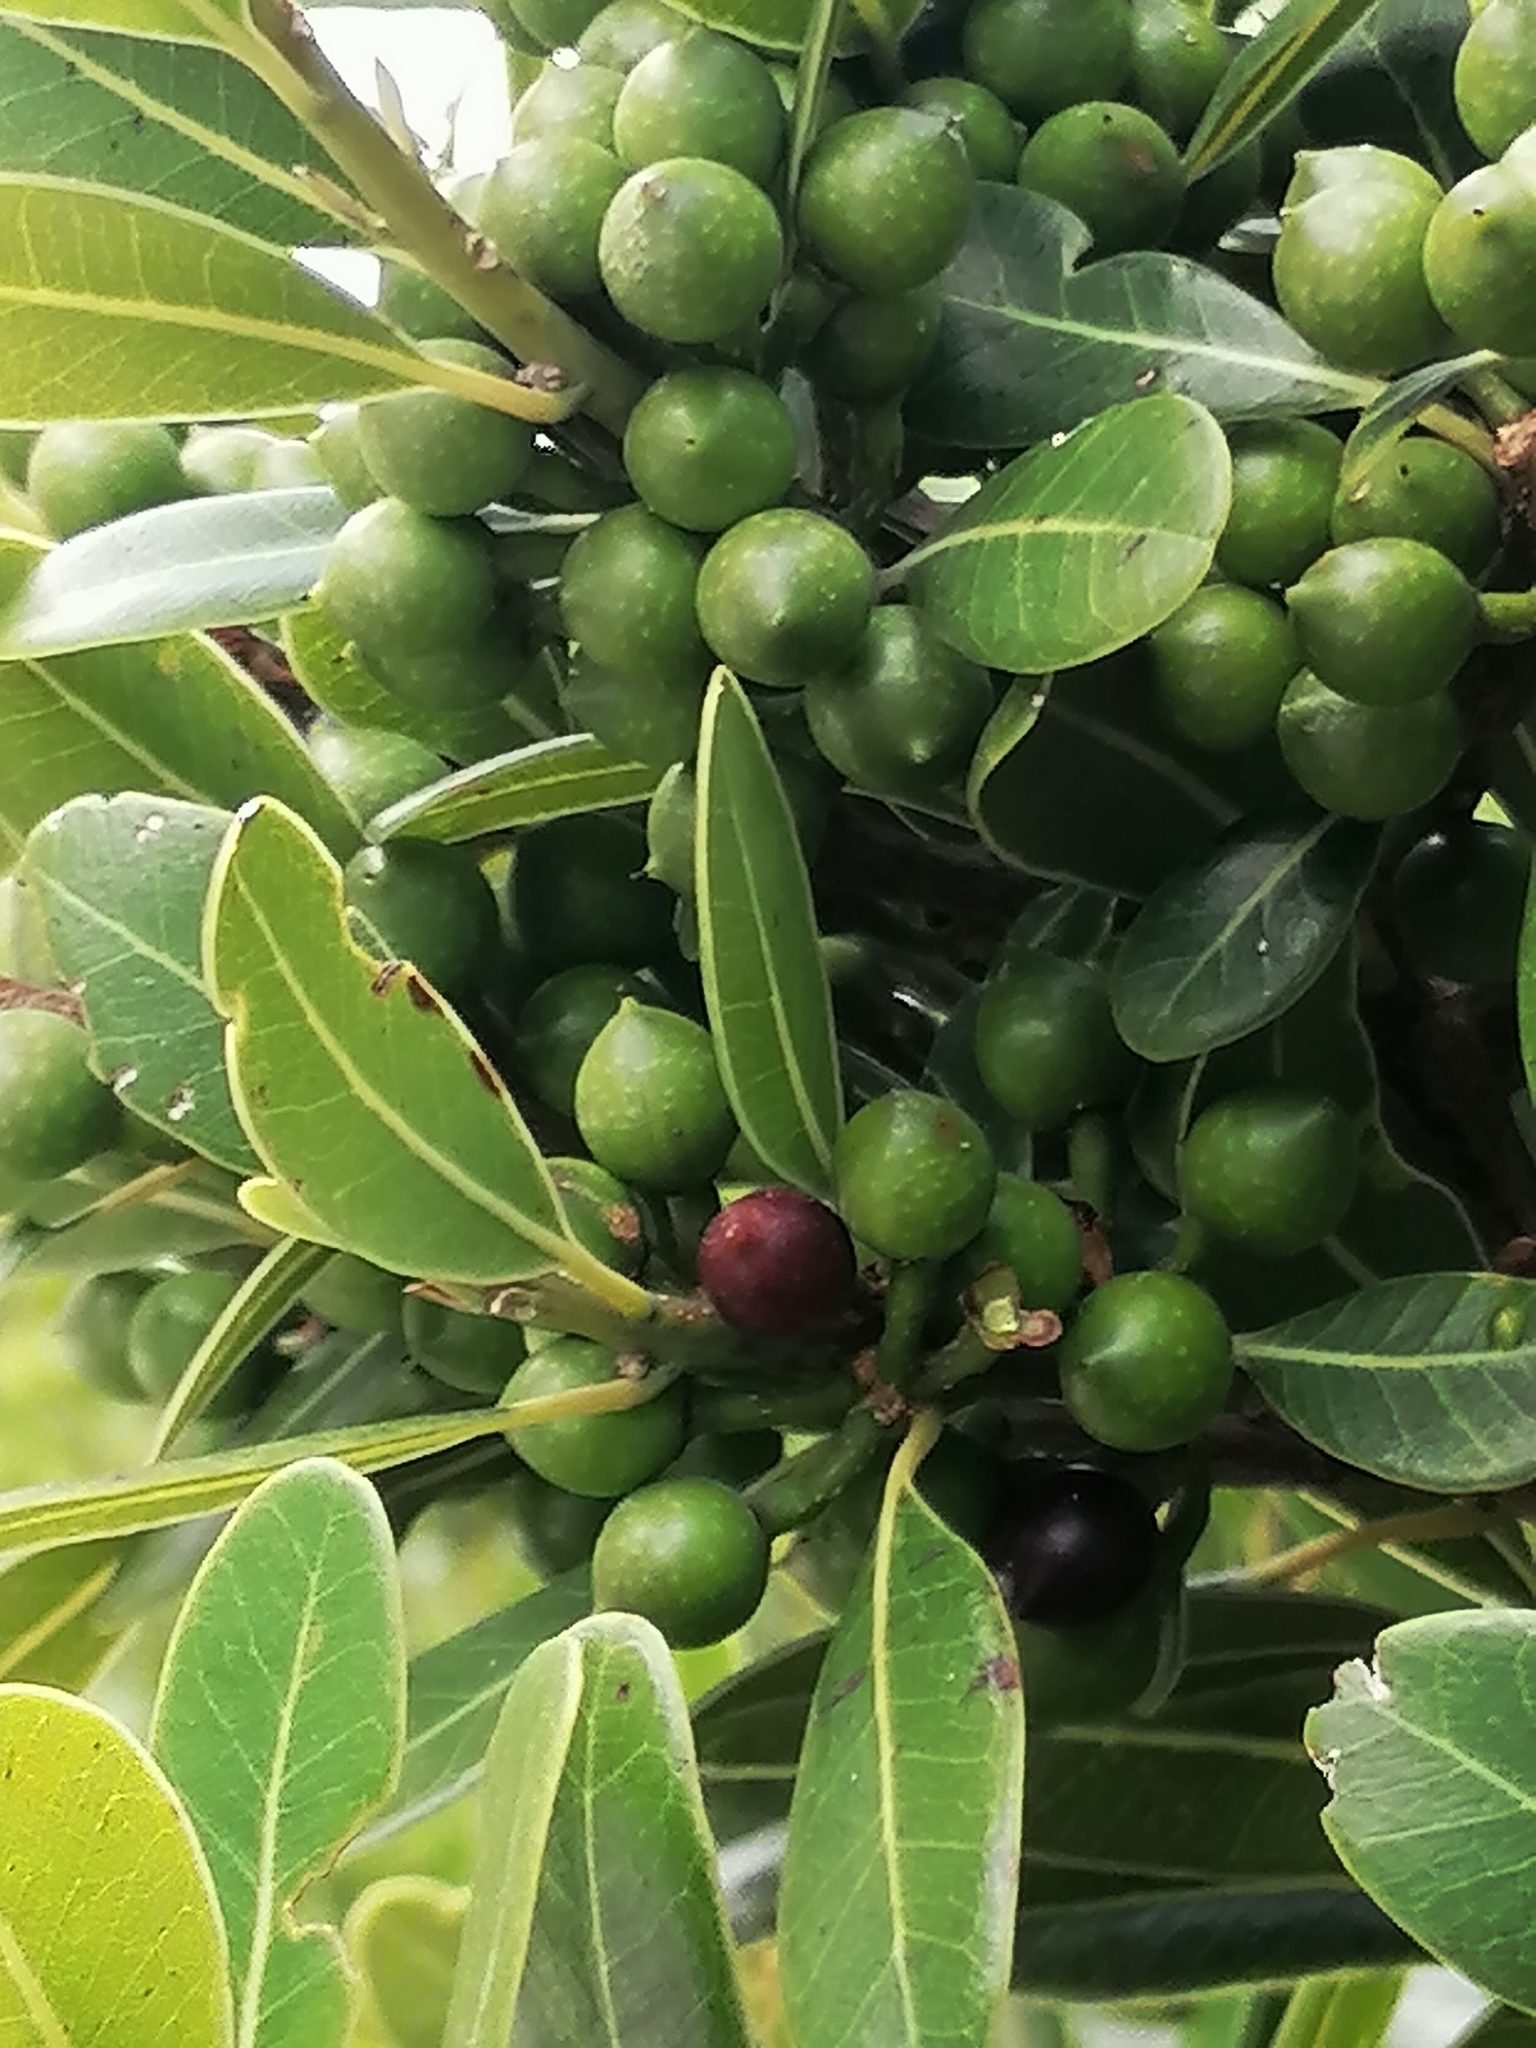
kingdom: Plantae
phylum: Tracheophyta
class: Magnoliopsida
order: Ericales
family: Sapotaceae
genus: Sideroxylon
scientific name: Sideroxylon inerme
